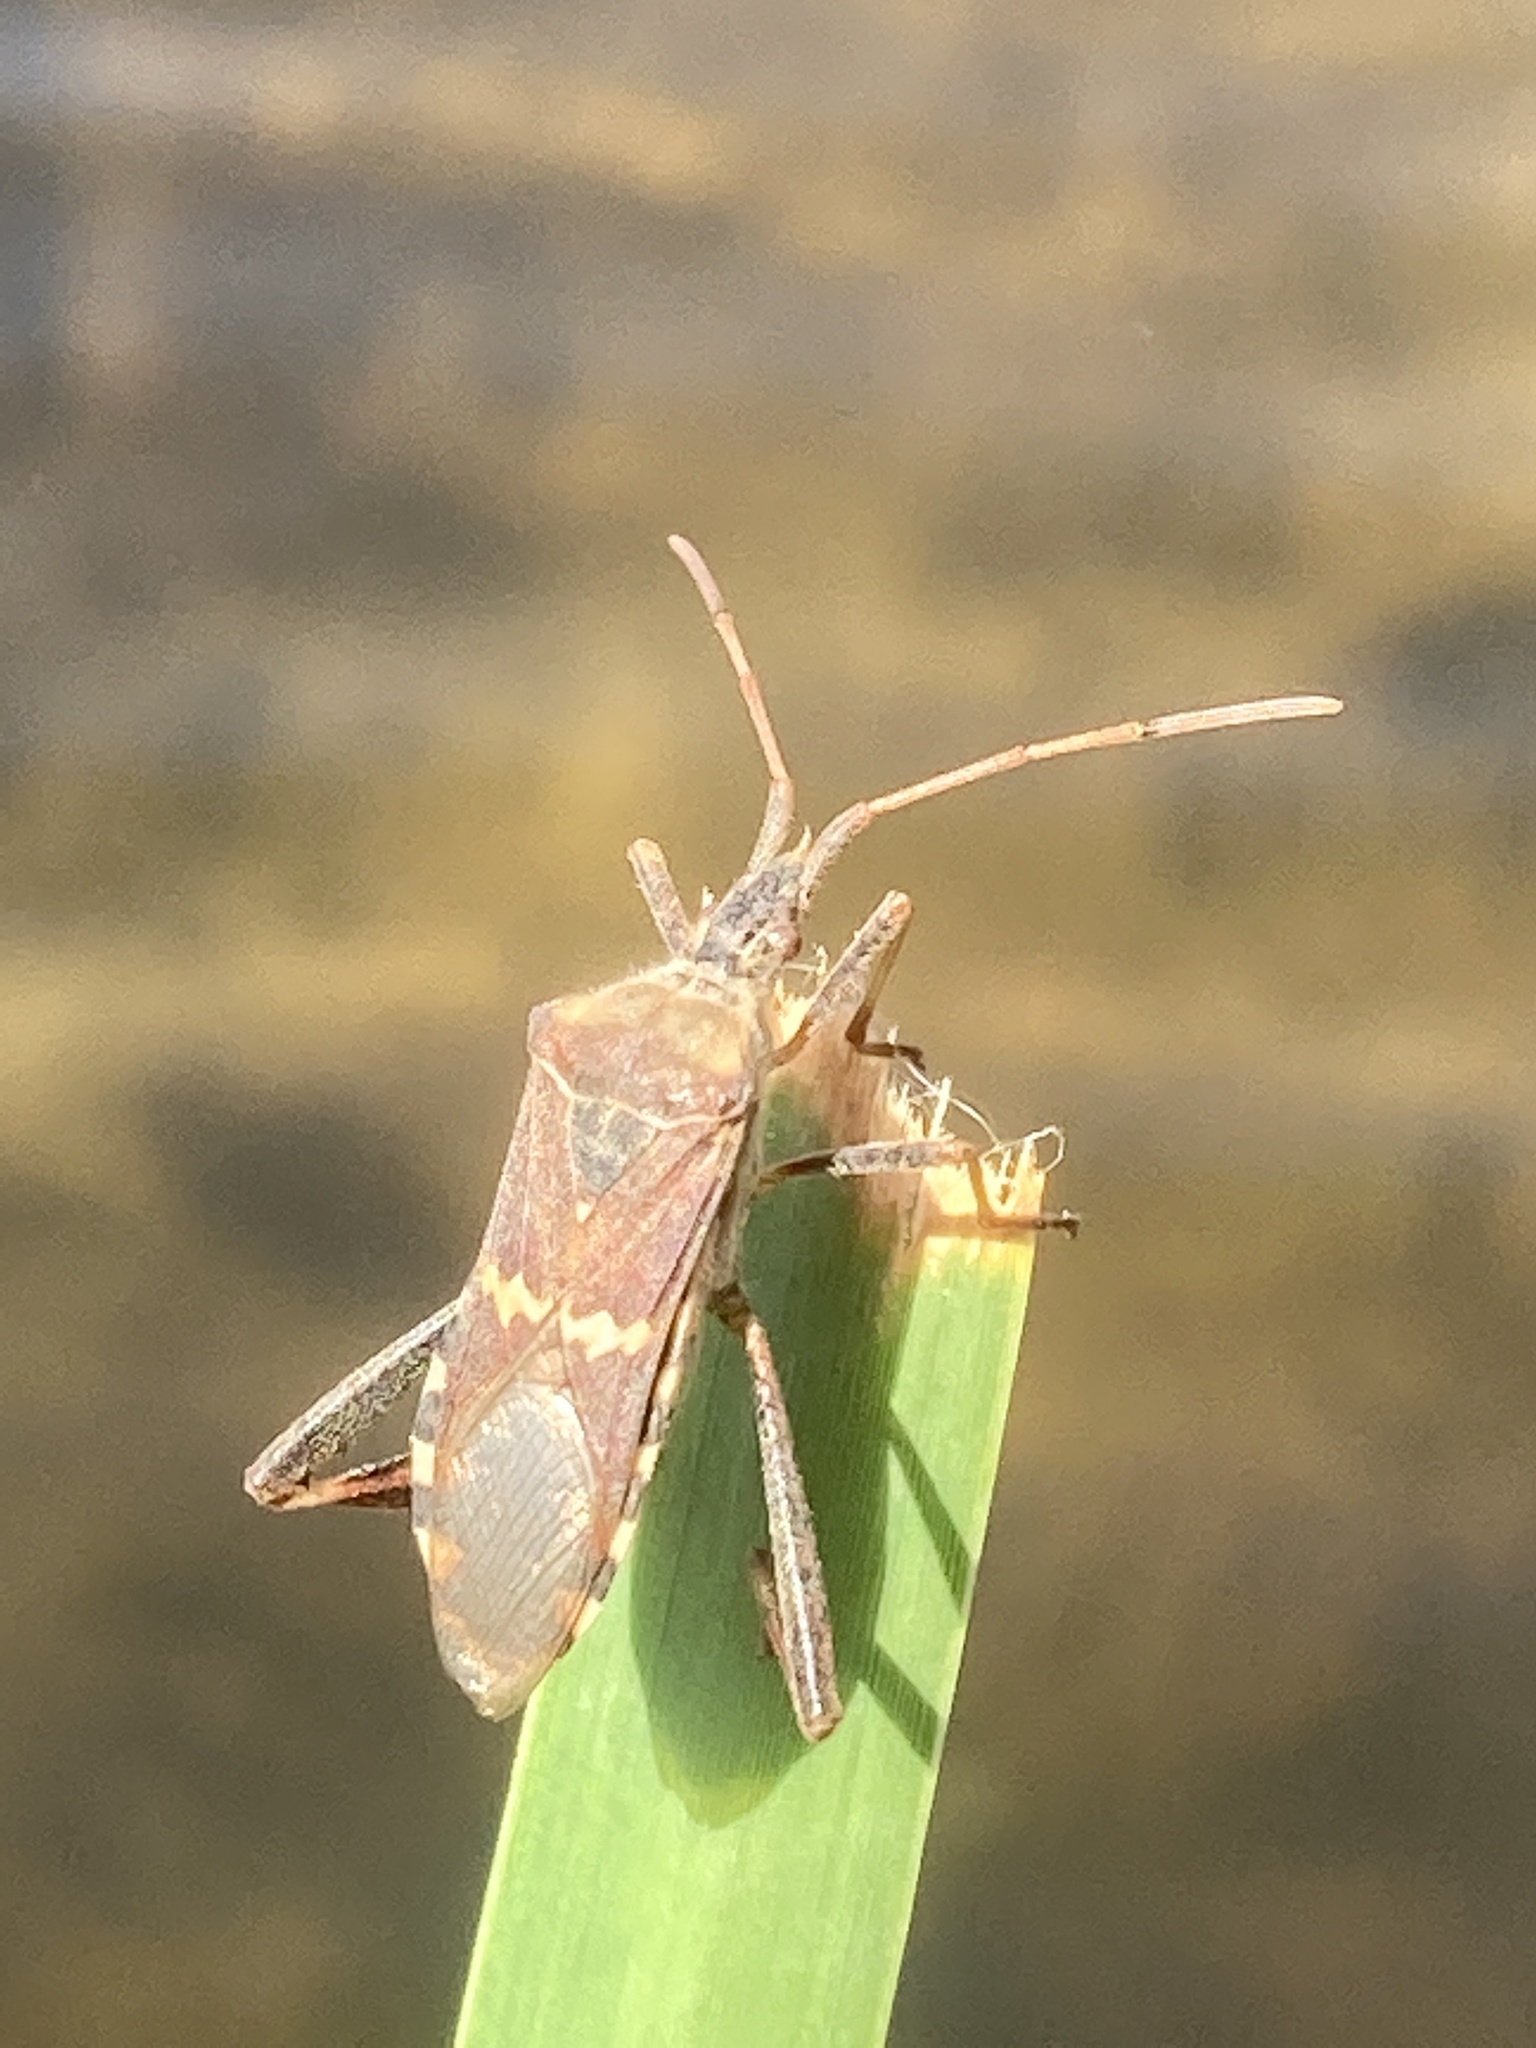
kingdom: Animalia
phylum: Arthropoda
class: Insecta
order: Hemiptera
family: Coreidae
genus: Leptoglossus
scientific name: Leptoglossus clypealis
